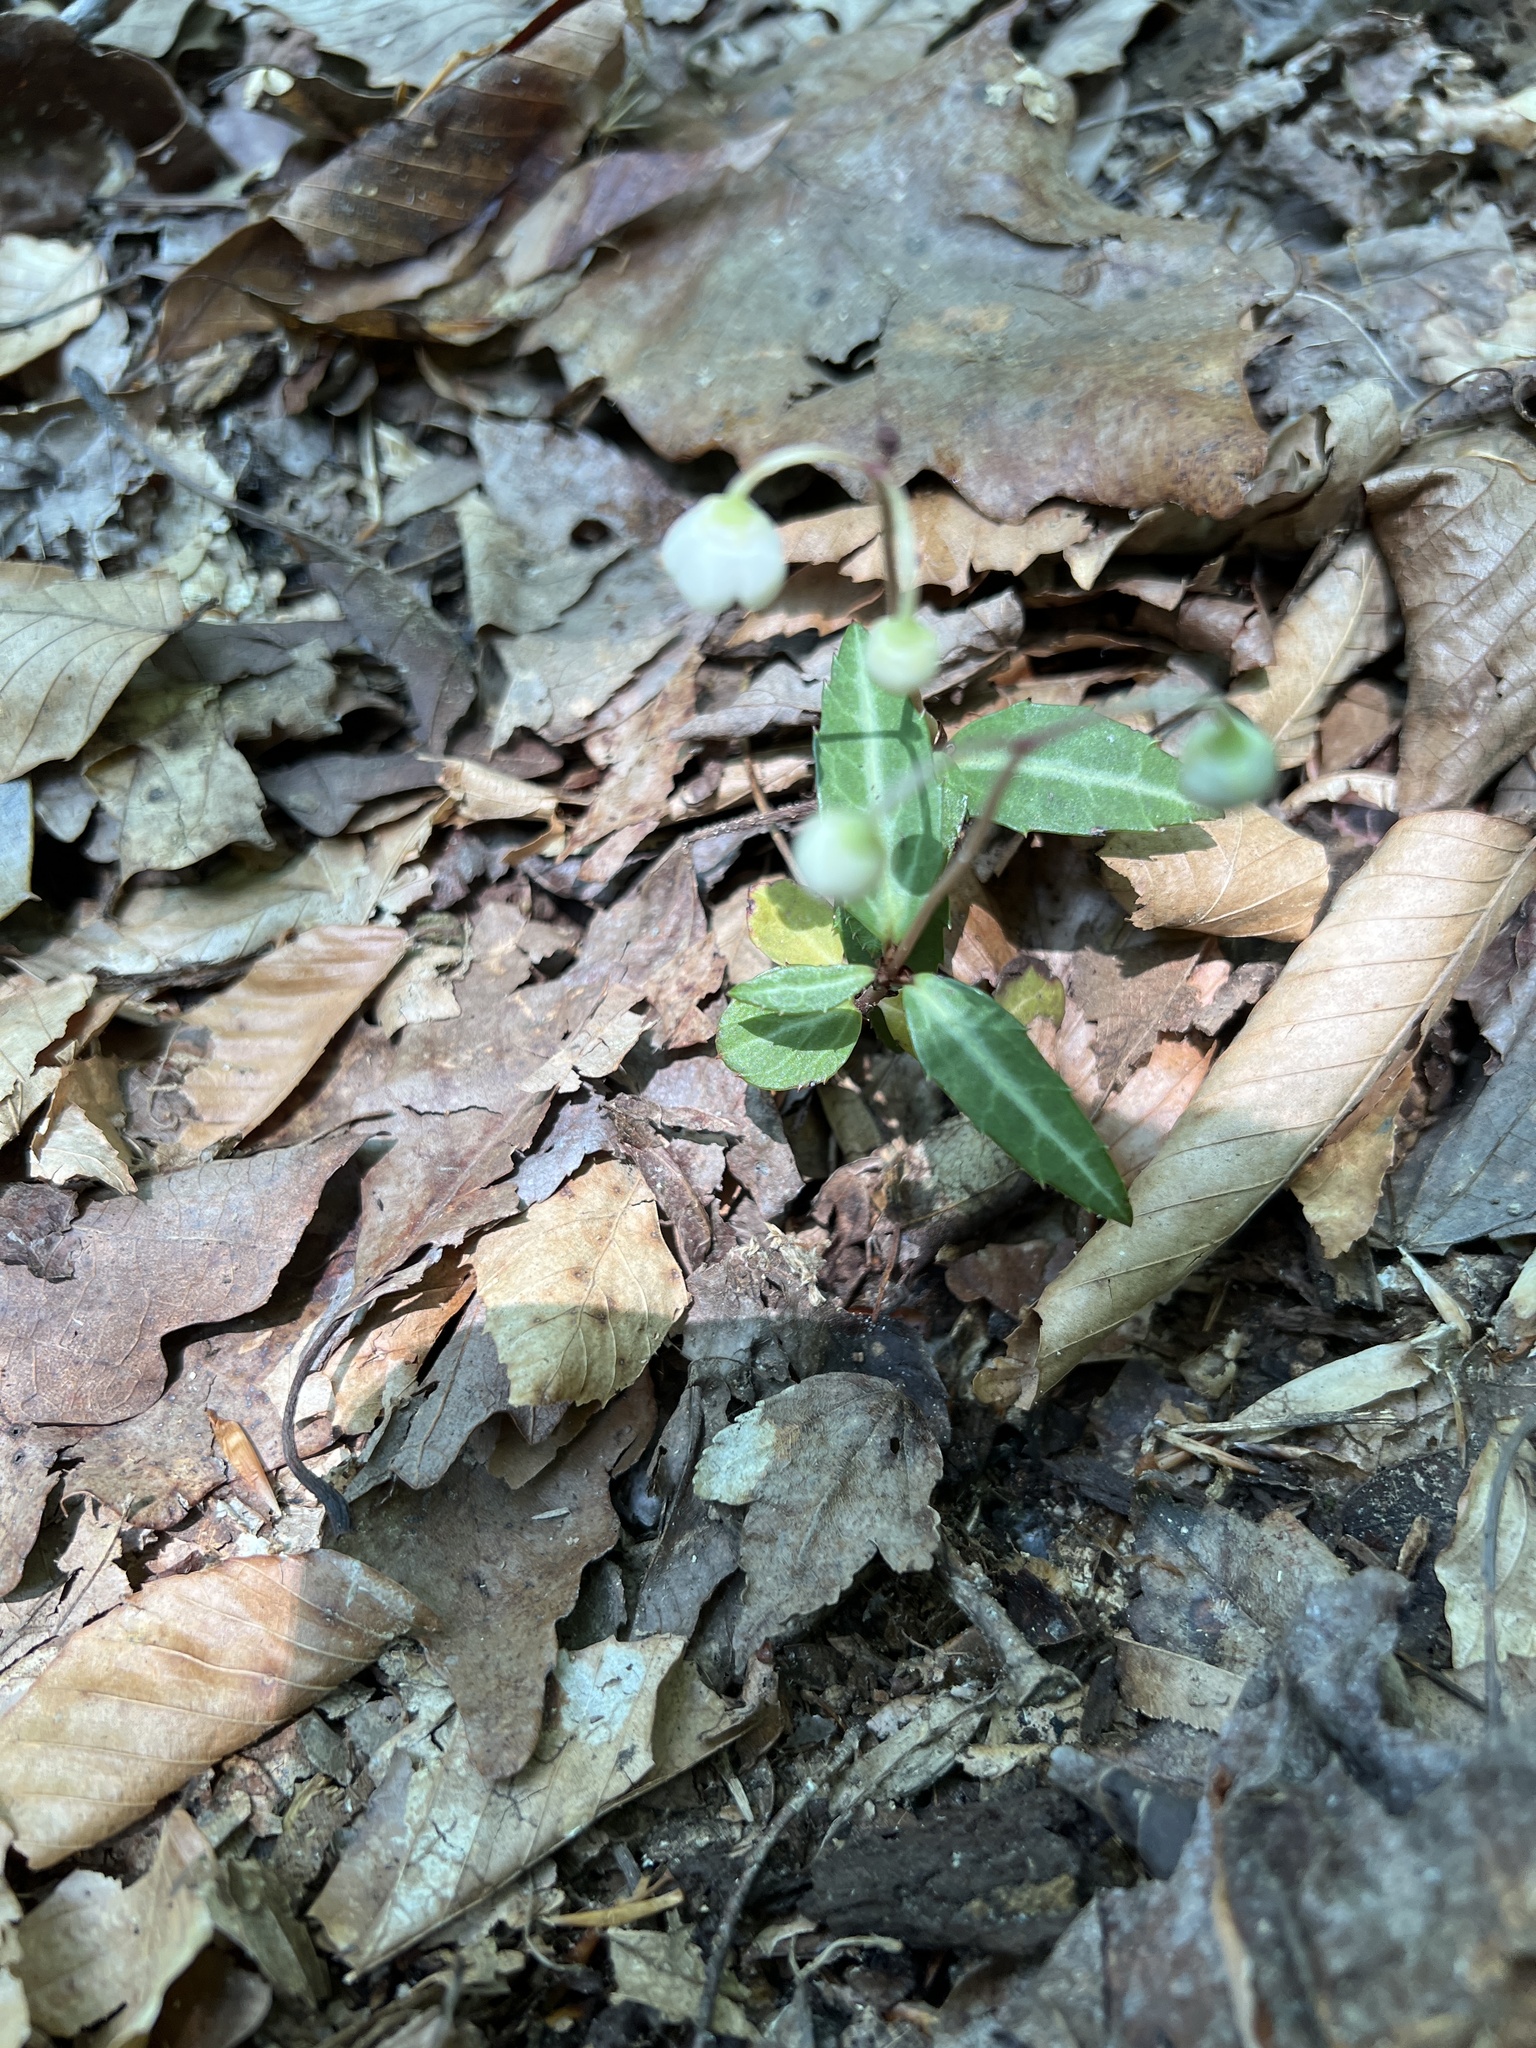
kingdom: Plantae
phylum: Tracheophyta
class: Magnoliopsida
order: Ericales
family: Ericaceae
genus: Chimaphila
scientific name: Chimaphila maculata
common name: Spotted pipsissewa
